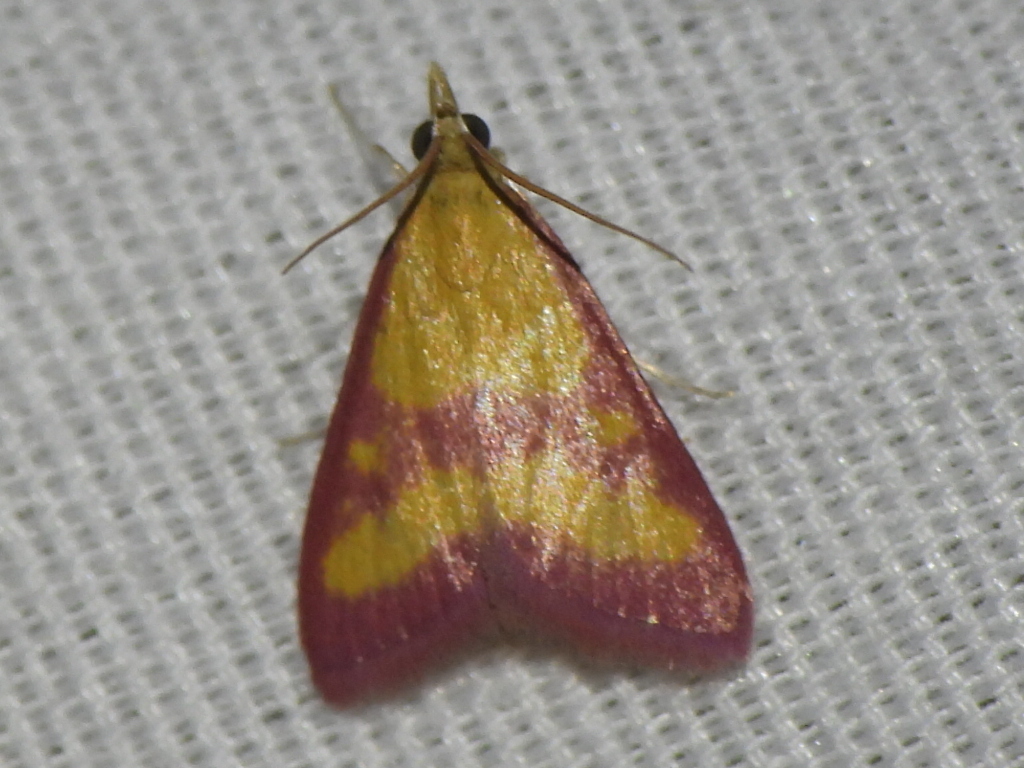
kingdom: Animalia
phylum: Arthropoda
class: Insecta
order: Lepidoptera
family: Crambidae
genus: Pyrausta
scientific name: Pyrausta laticlavia
